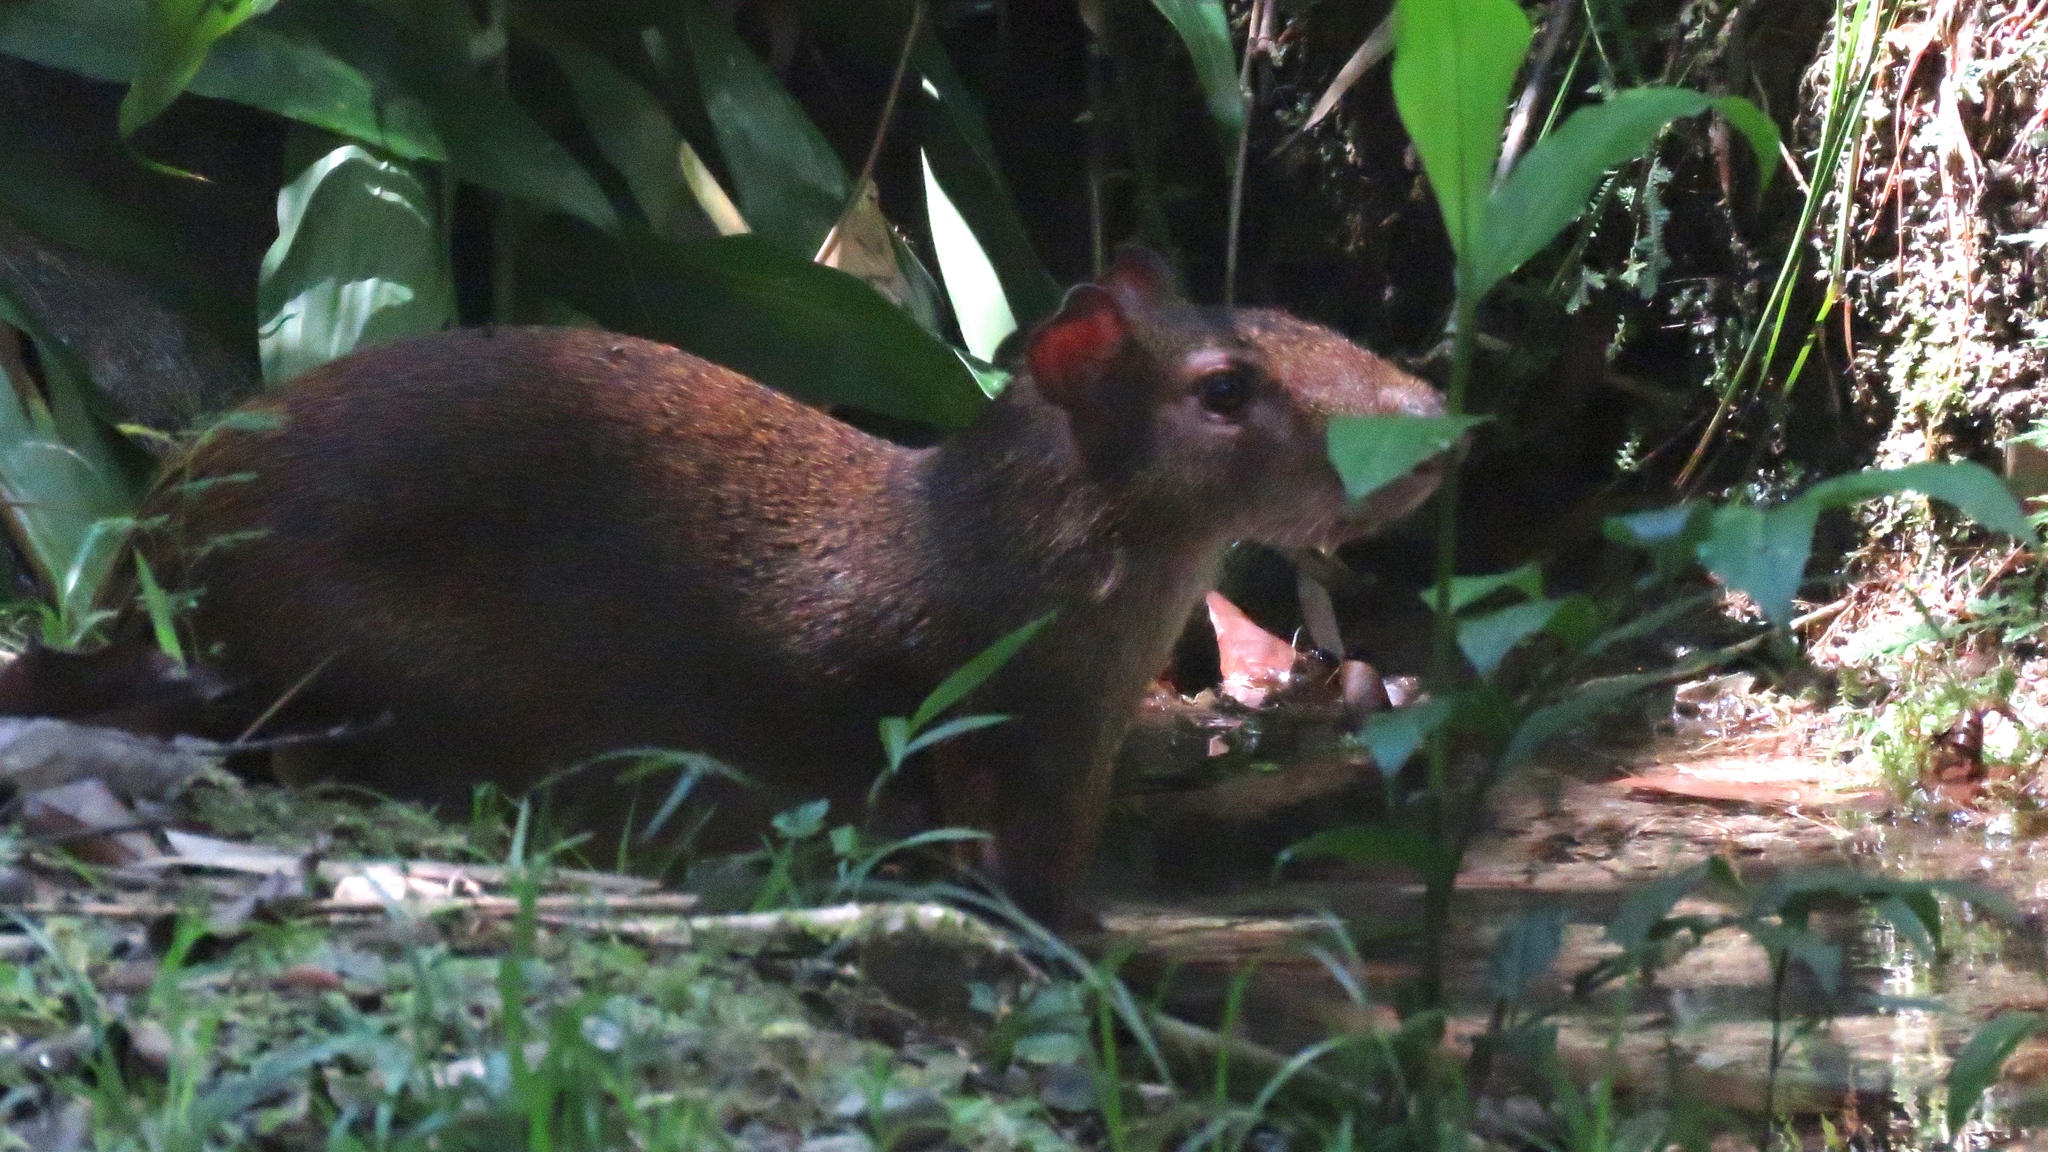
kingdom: Animalia
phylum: Chordata
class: Mammalia
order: Rodentia
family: Dasyproctidae
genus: Dasyprocta
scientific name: Dasyprocta punctata
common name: Central american agouti
